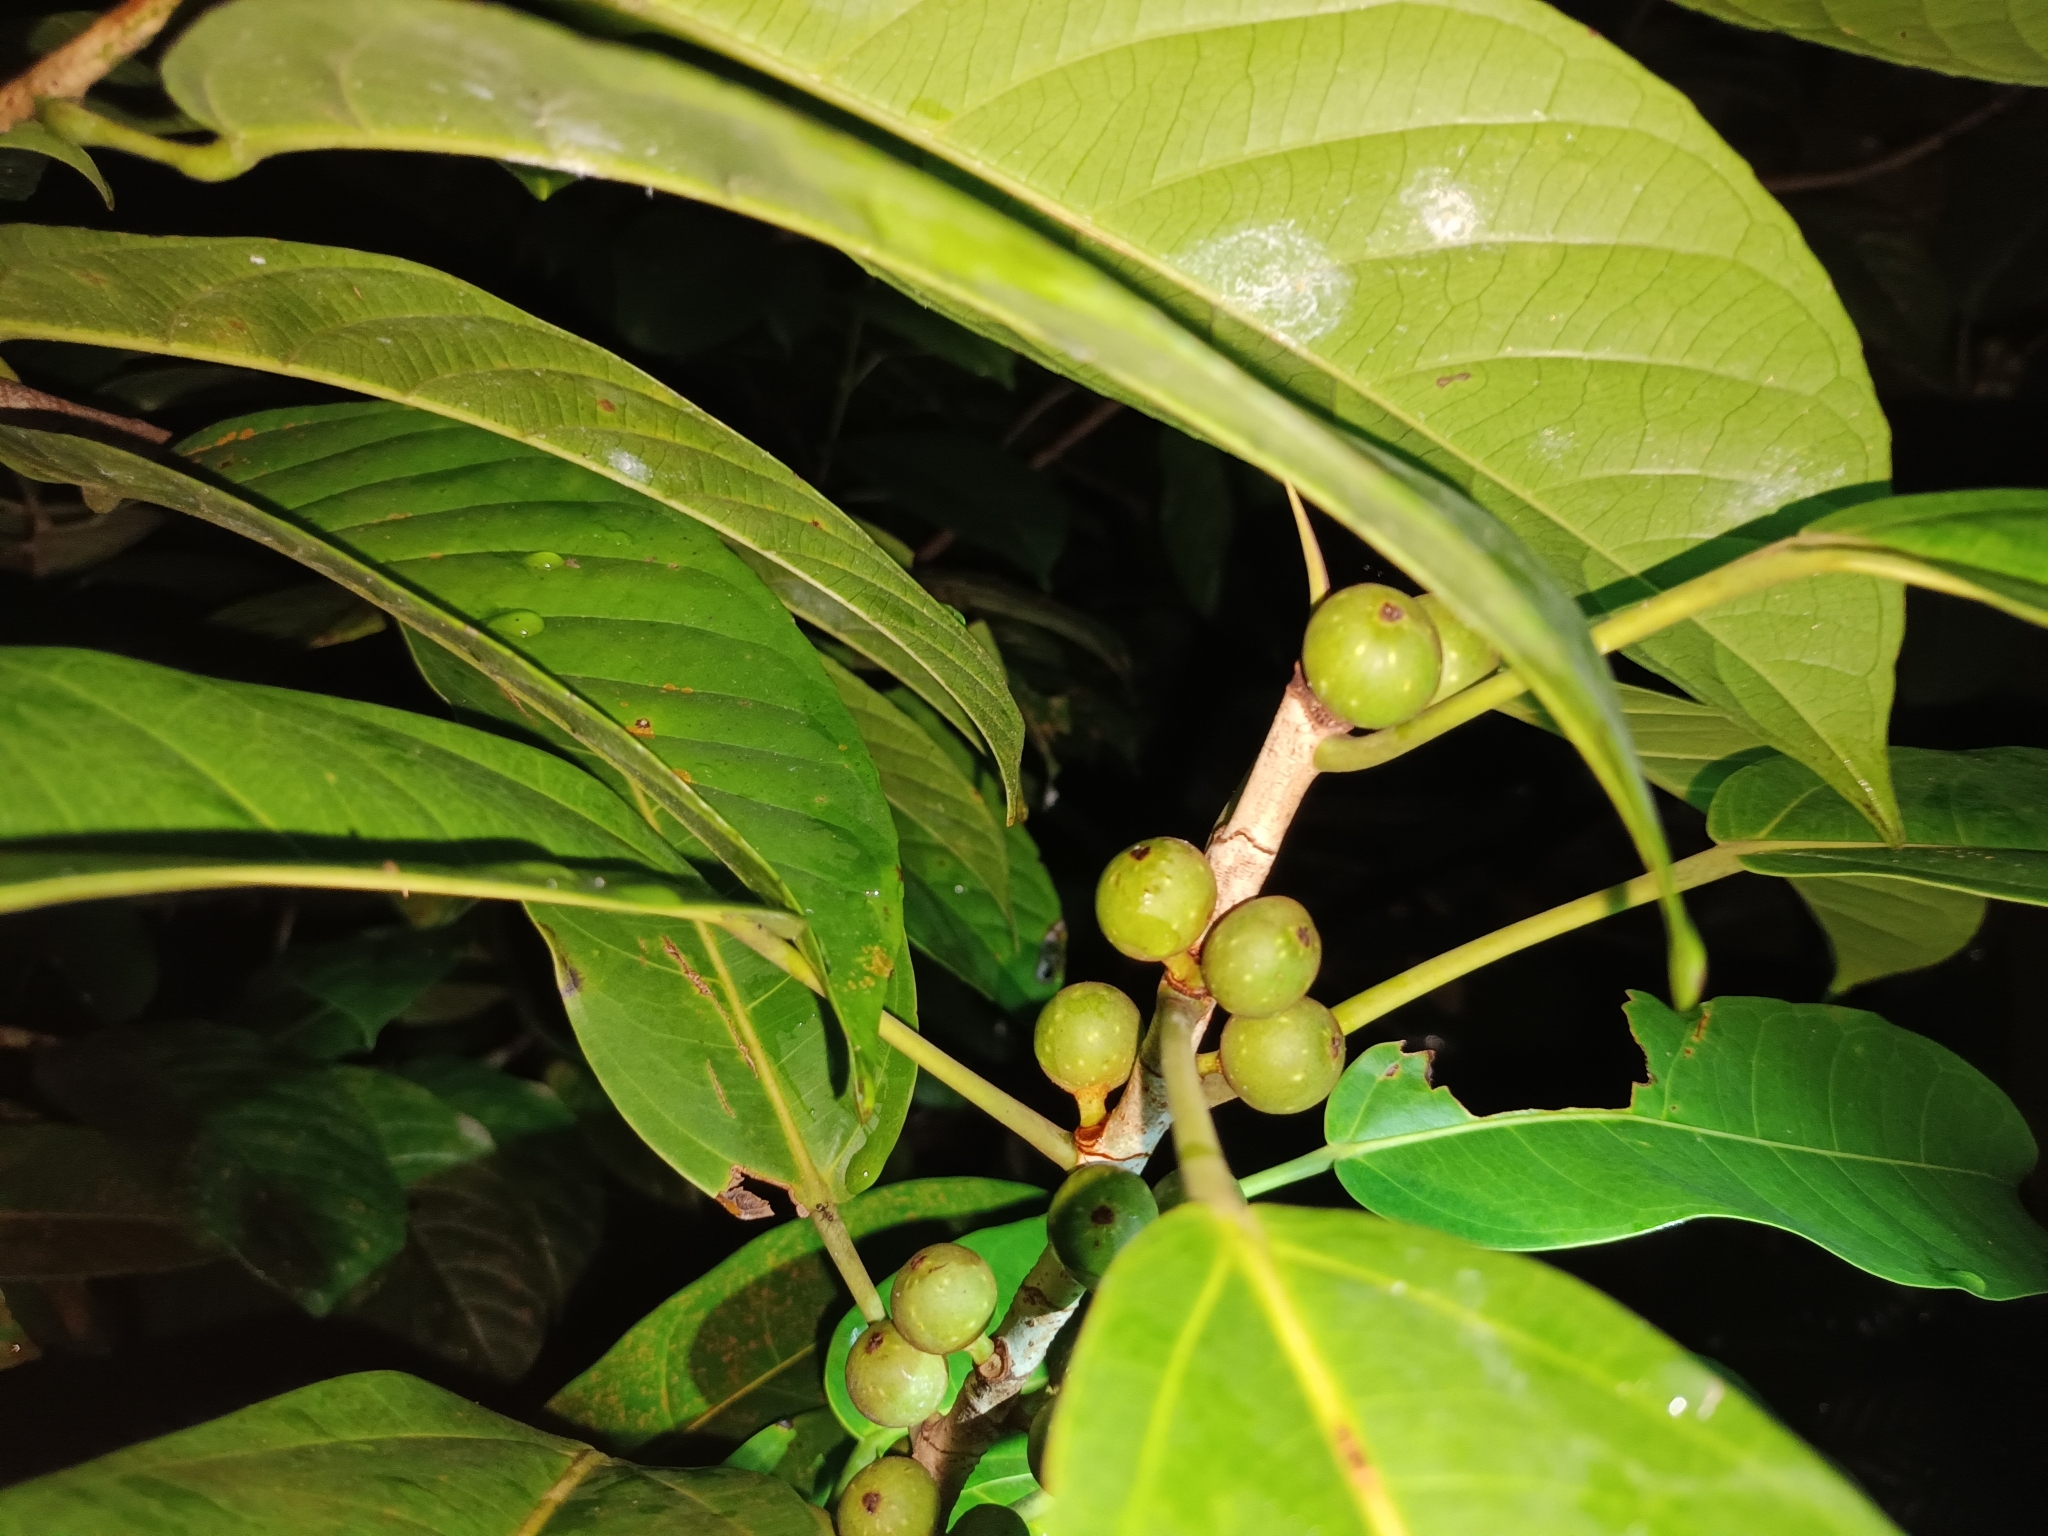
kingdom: Plantae
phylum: Tracheophyta
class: Magnoliopsida
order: Rosales
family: Moraceae
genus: Ficus
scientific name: Ficus globosa
